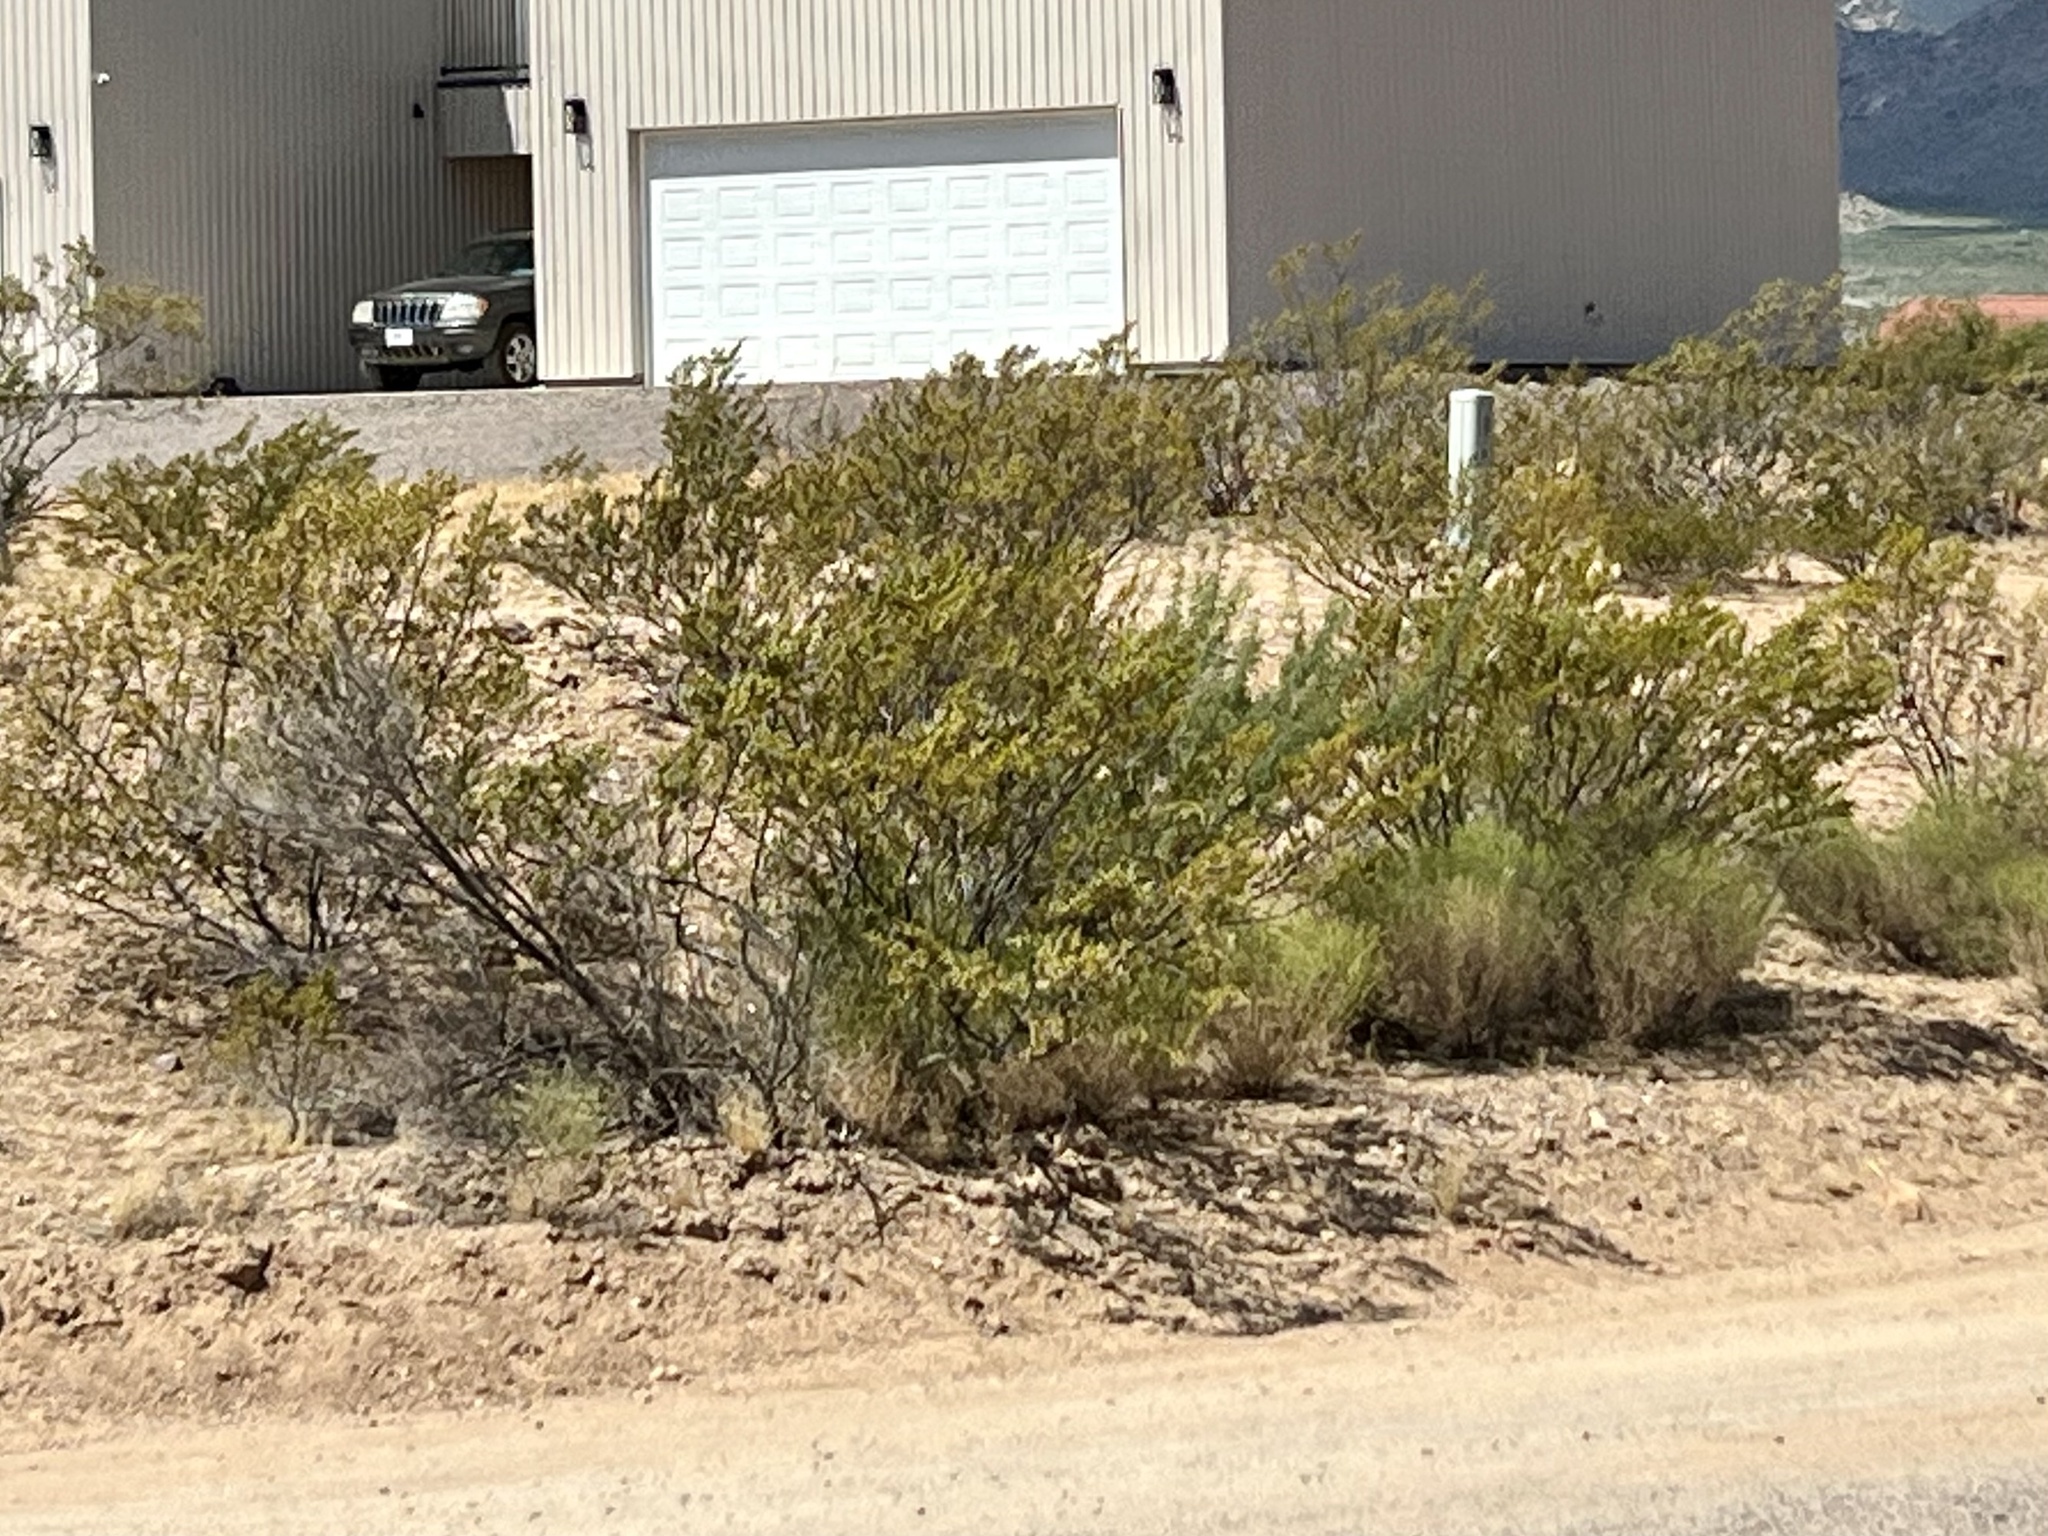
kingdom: Plantae
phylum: Tracheophyta
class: Magnoliopsida
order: Zygophyllales
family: Zygophyllaceae
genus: Larrea
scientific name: Larrea tridentata
